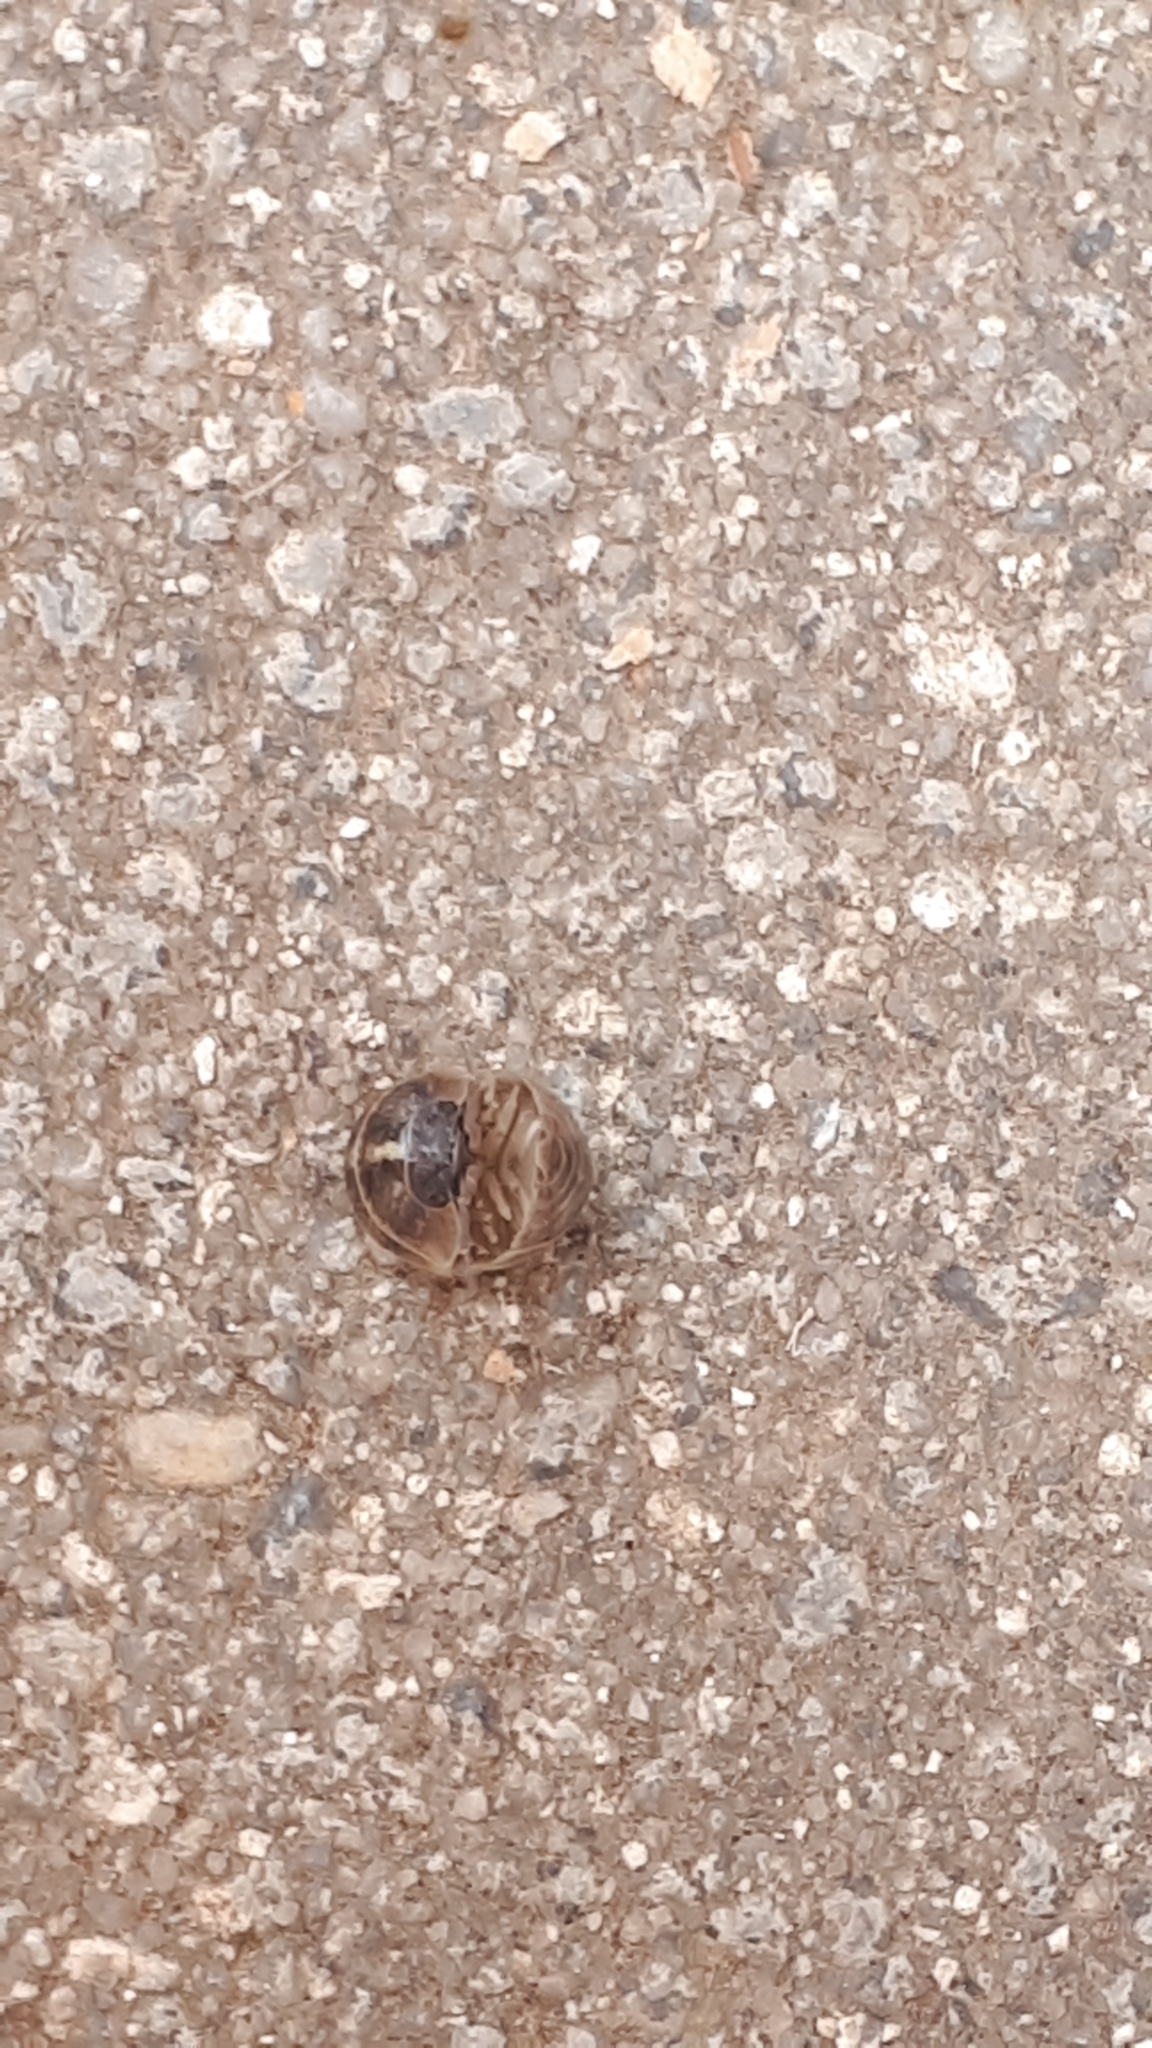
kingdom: Animalia
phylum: Arthropoda
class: Malacostraca
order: Isopoda
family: Armadillidiidae
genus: Armadillidium
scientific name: Armadillidium vulgare
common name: Common pill woodlouse
